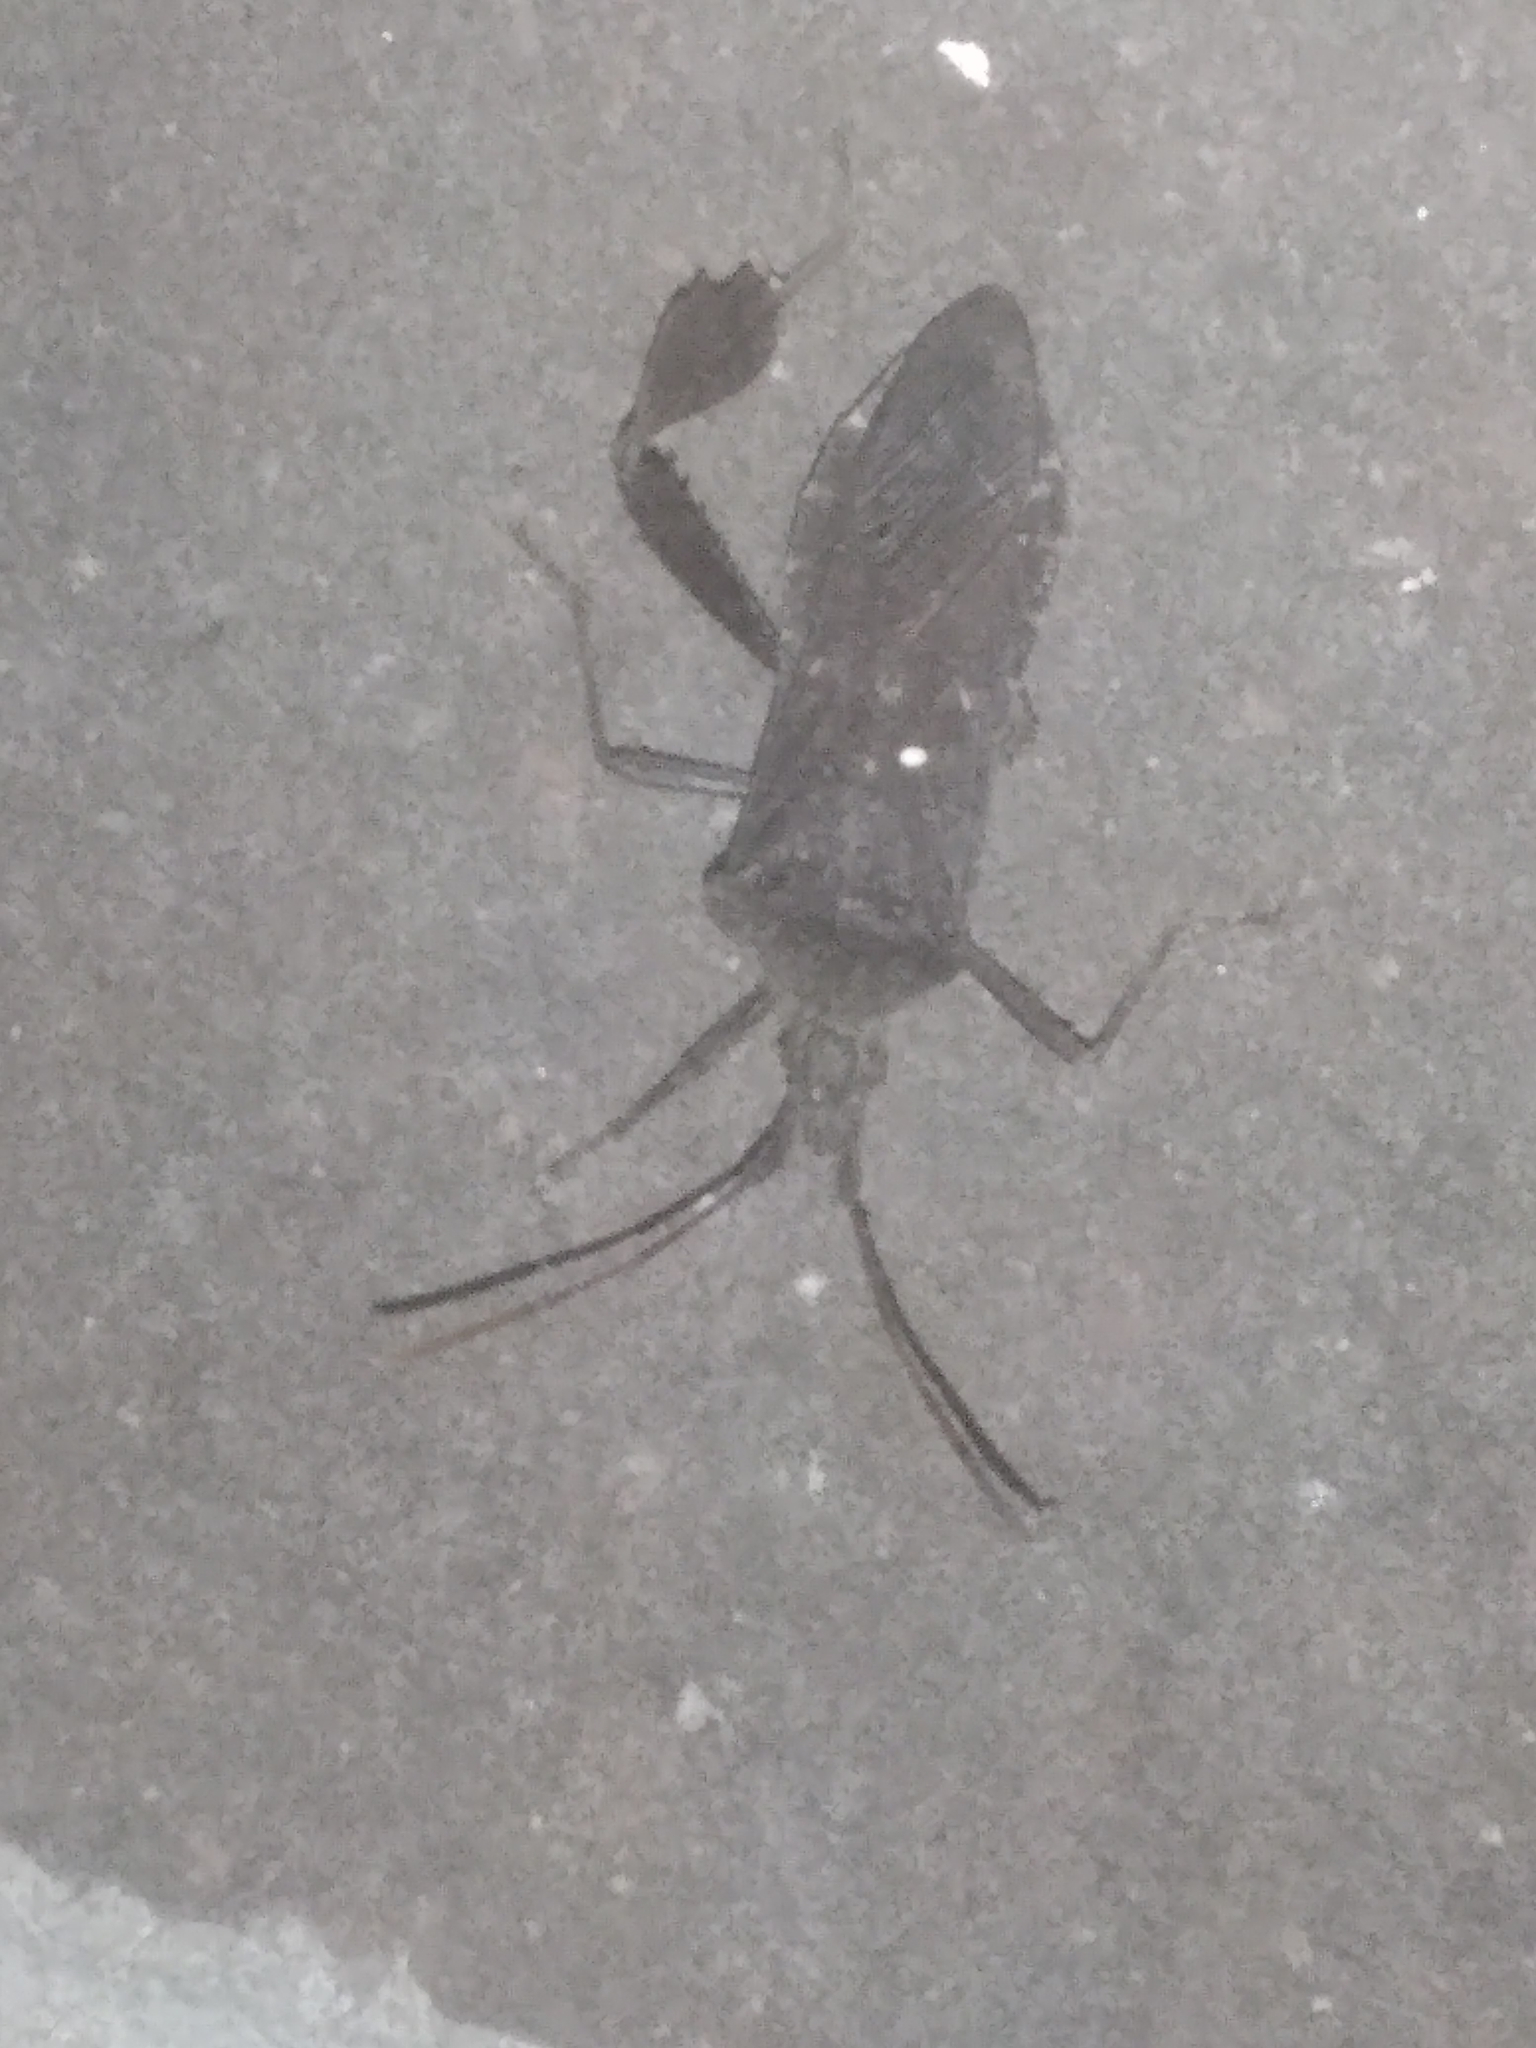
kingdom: Animalia
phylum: Arthropoda
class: Insecta
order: Hemiptera
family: Coreidae
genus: Leptoglossus
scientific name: Leptoglossus oppositus
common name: Northern leaf-footed bug
